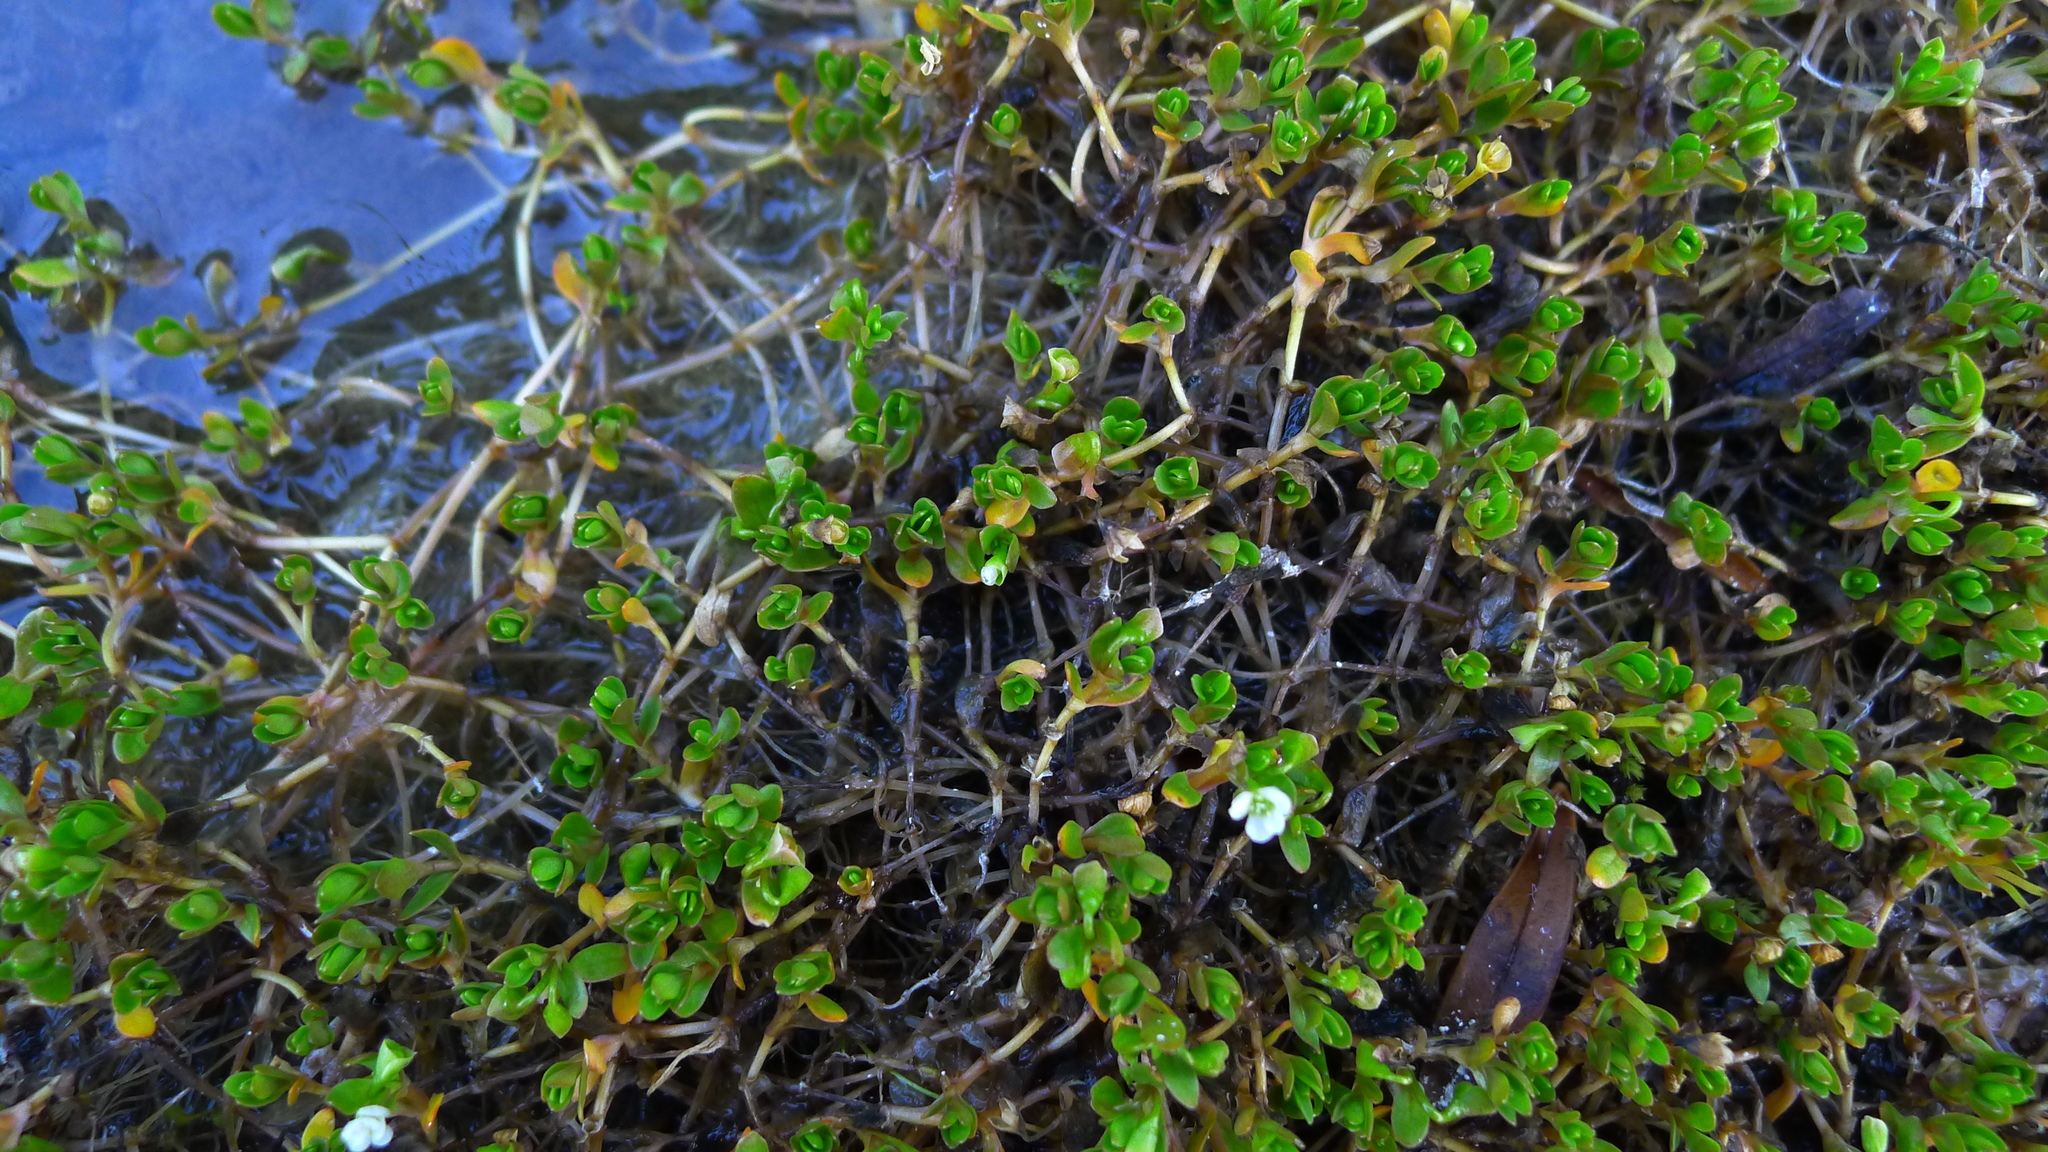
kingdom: Plantae
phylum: Tracheophyta
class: Magnoliopsida
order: Caryophyllales
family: Montiaceae
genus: Montia
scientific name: Montia fontana
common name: Blinks
